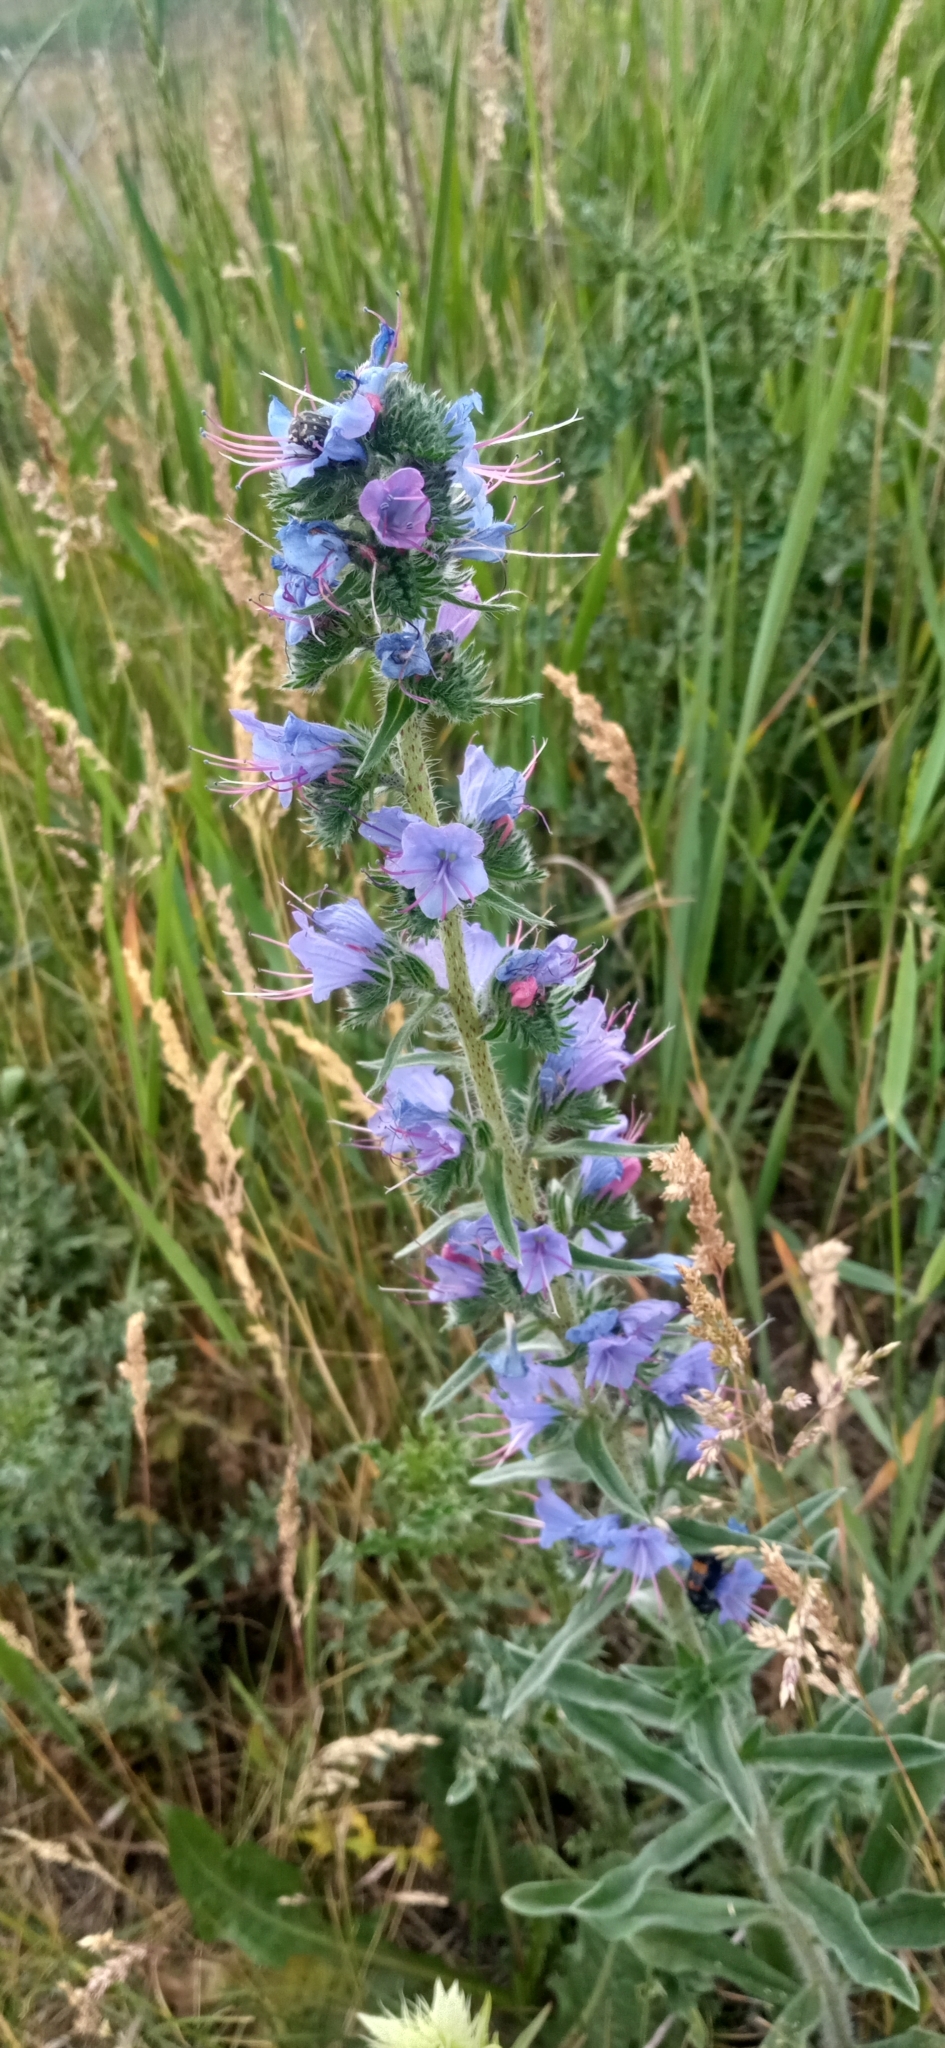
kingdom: Plantae
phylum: Tracheophyta
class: Magnoliopsida
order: Boraginales
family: Boraginaceae
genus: Echium
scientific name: Echium vulgare
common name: Common viper's bugloss
